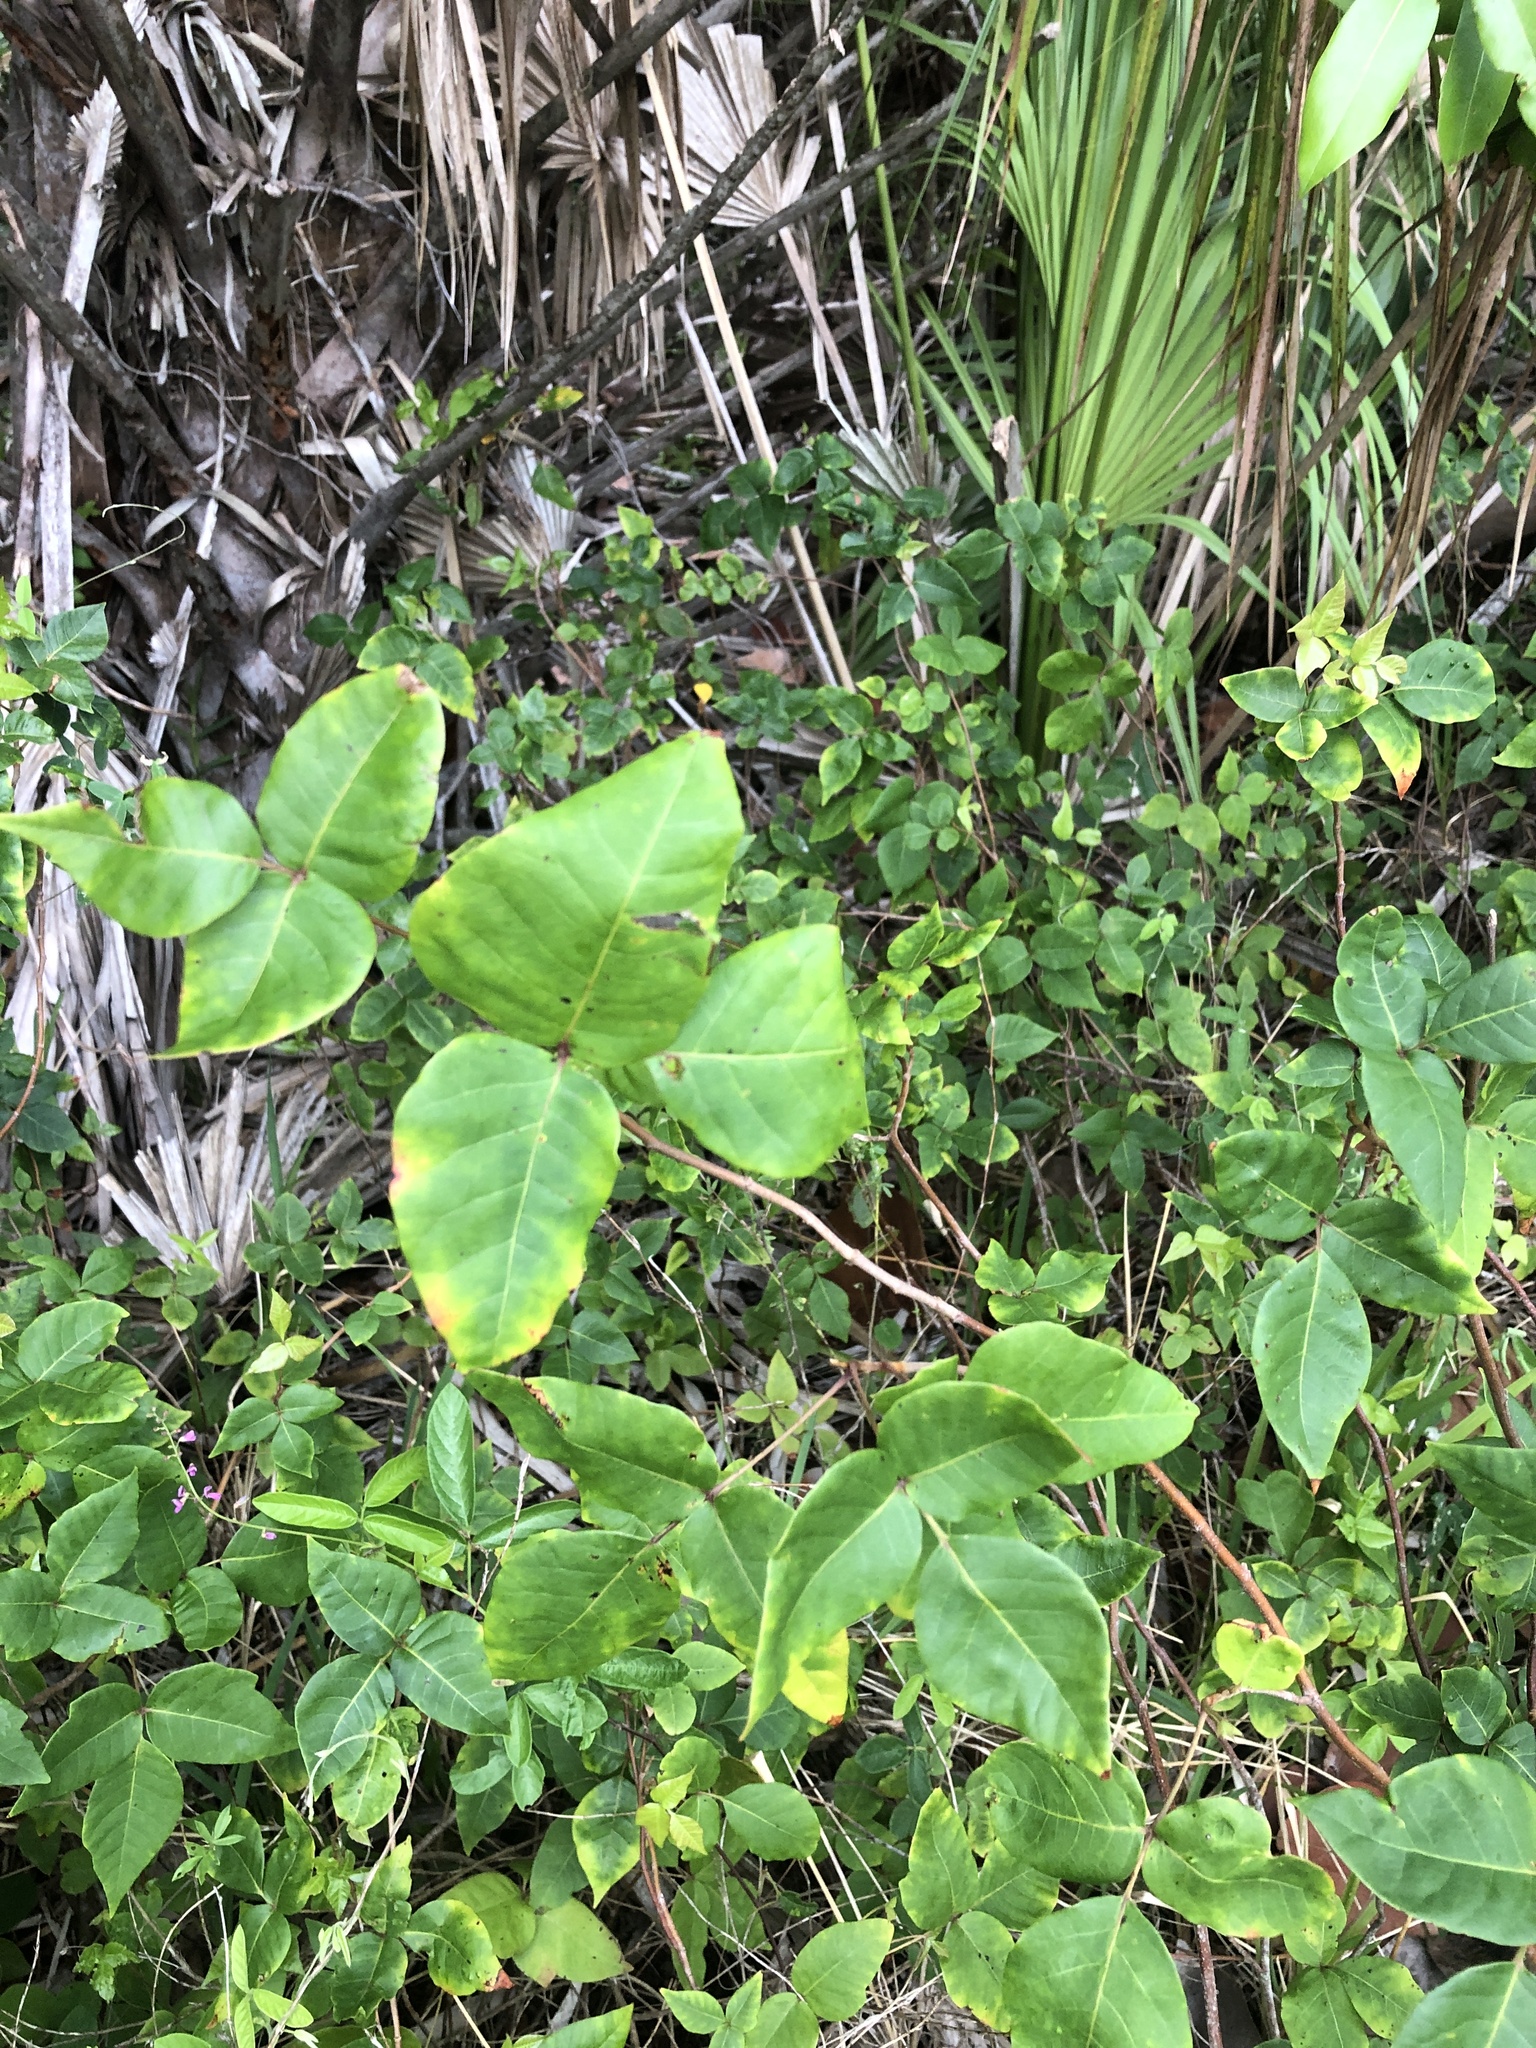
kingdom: Plantae
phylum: Tracheophyta
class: Magnoliopsida
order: Sapindales
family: Anacardiaceae
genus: Toxicodendron
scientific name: Toxicodendron radicans
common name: Poison ivy
